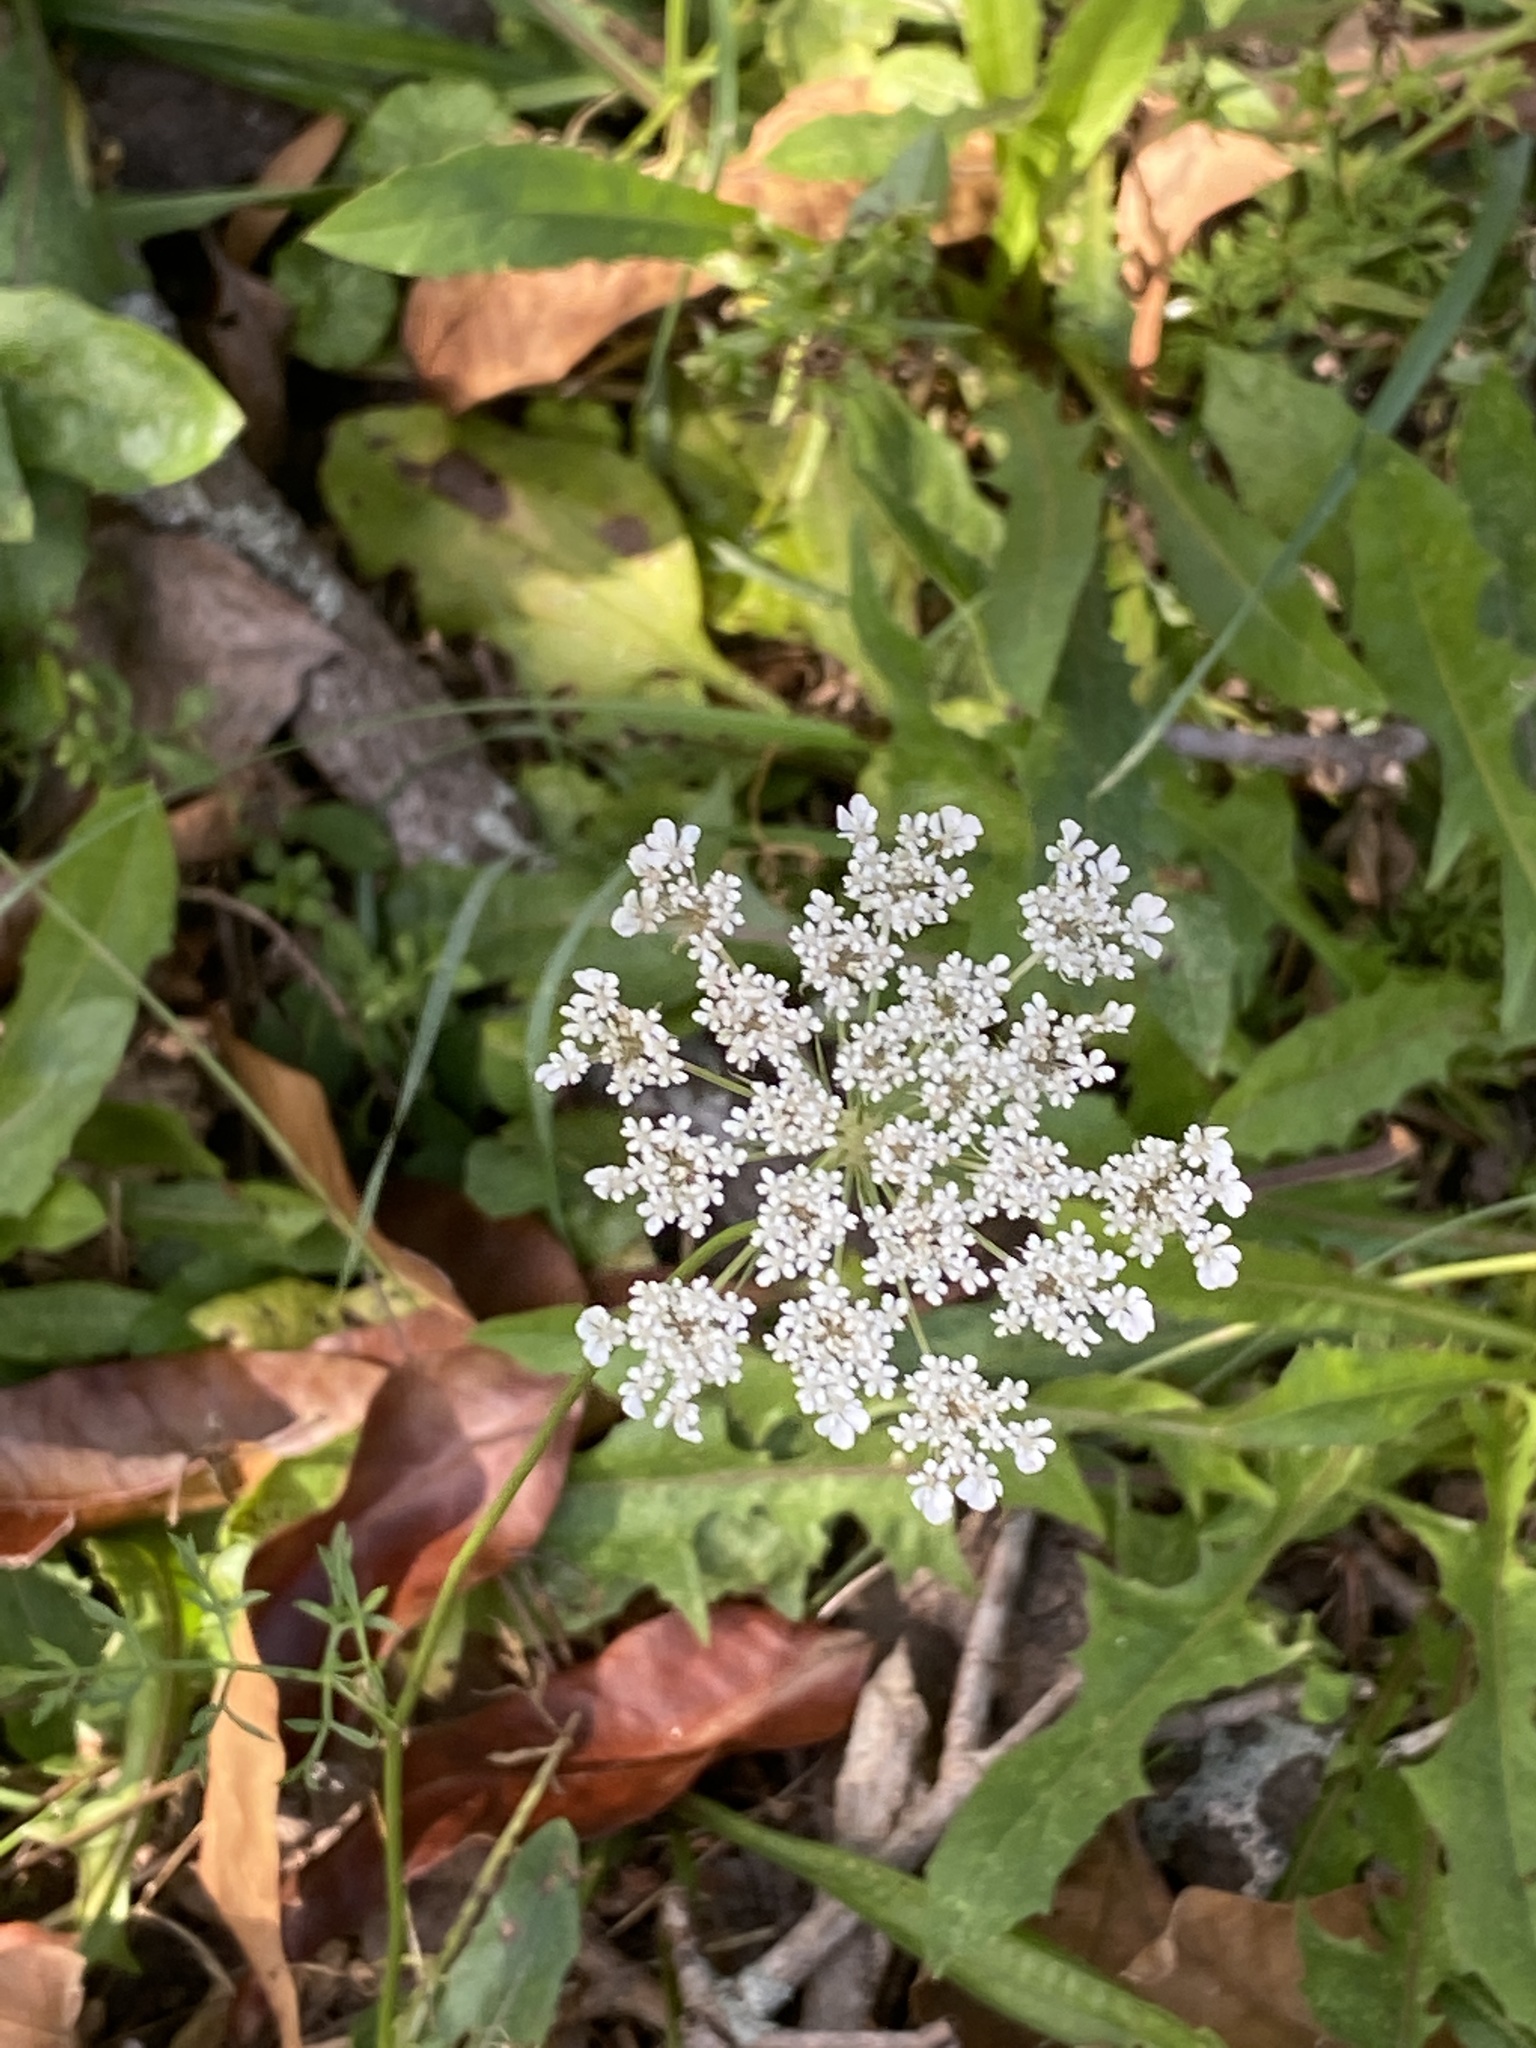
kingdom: Plantae
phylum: Tracheophyta
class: Magnoliopsida
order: Apiales
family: Apiaceae
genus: Daucus
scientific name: Daucus carota
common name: Wild carrot
